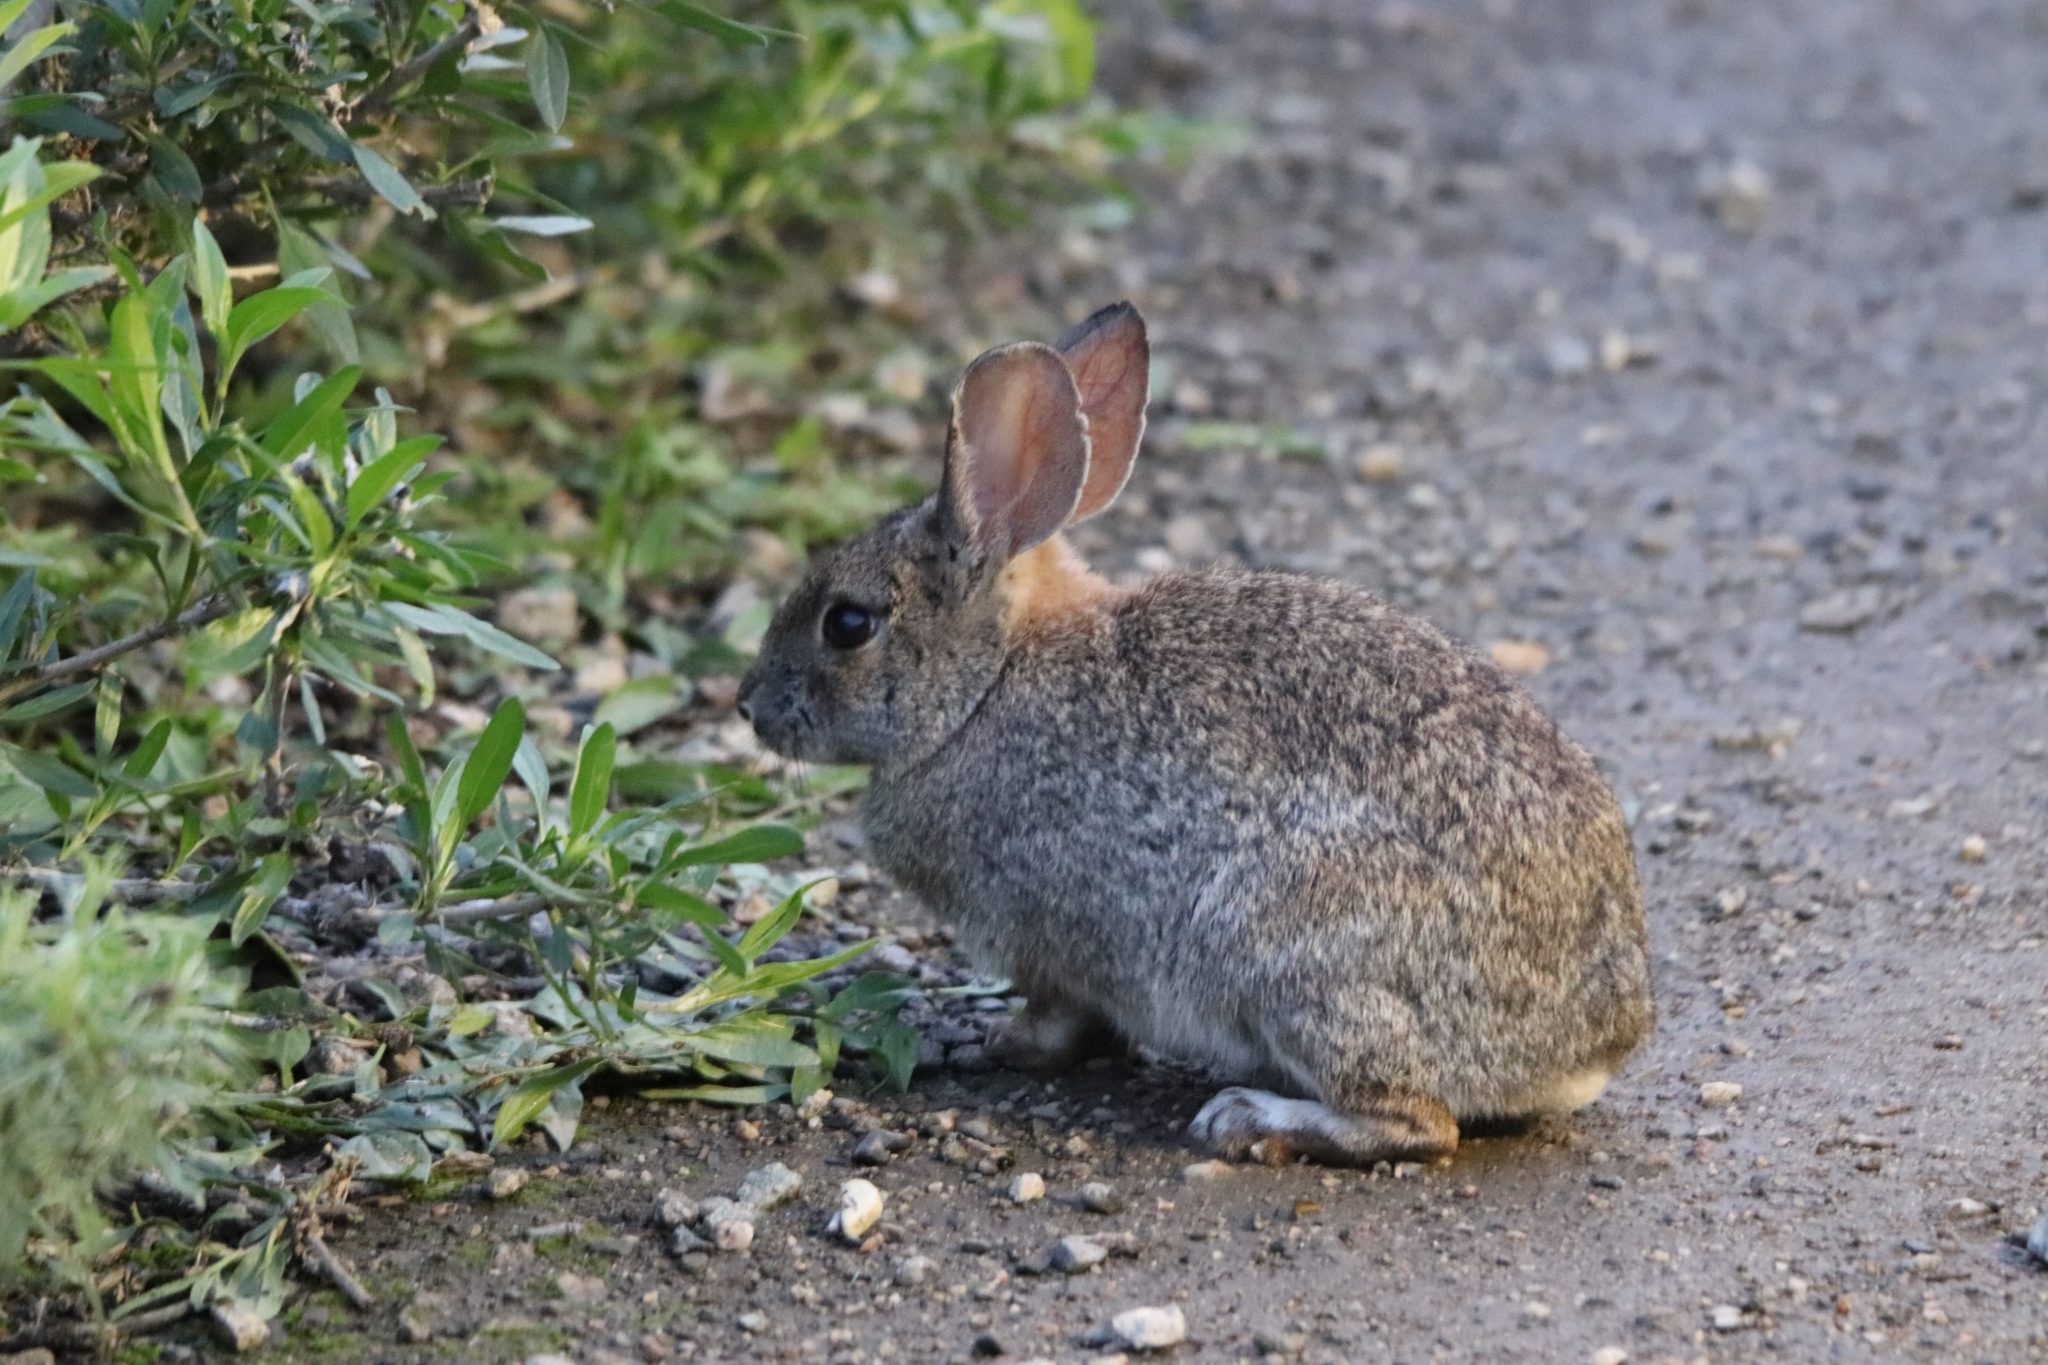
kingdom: Animalia
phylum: Chordata
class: Mammalia
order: Lagomorpha
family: Leporidae
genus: Sylvilagus
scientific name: Sylvilagus audubonii
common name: Desert cottontail
